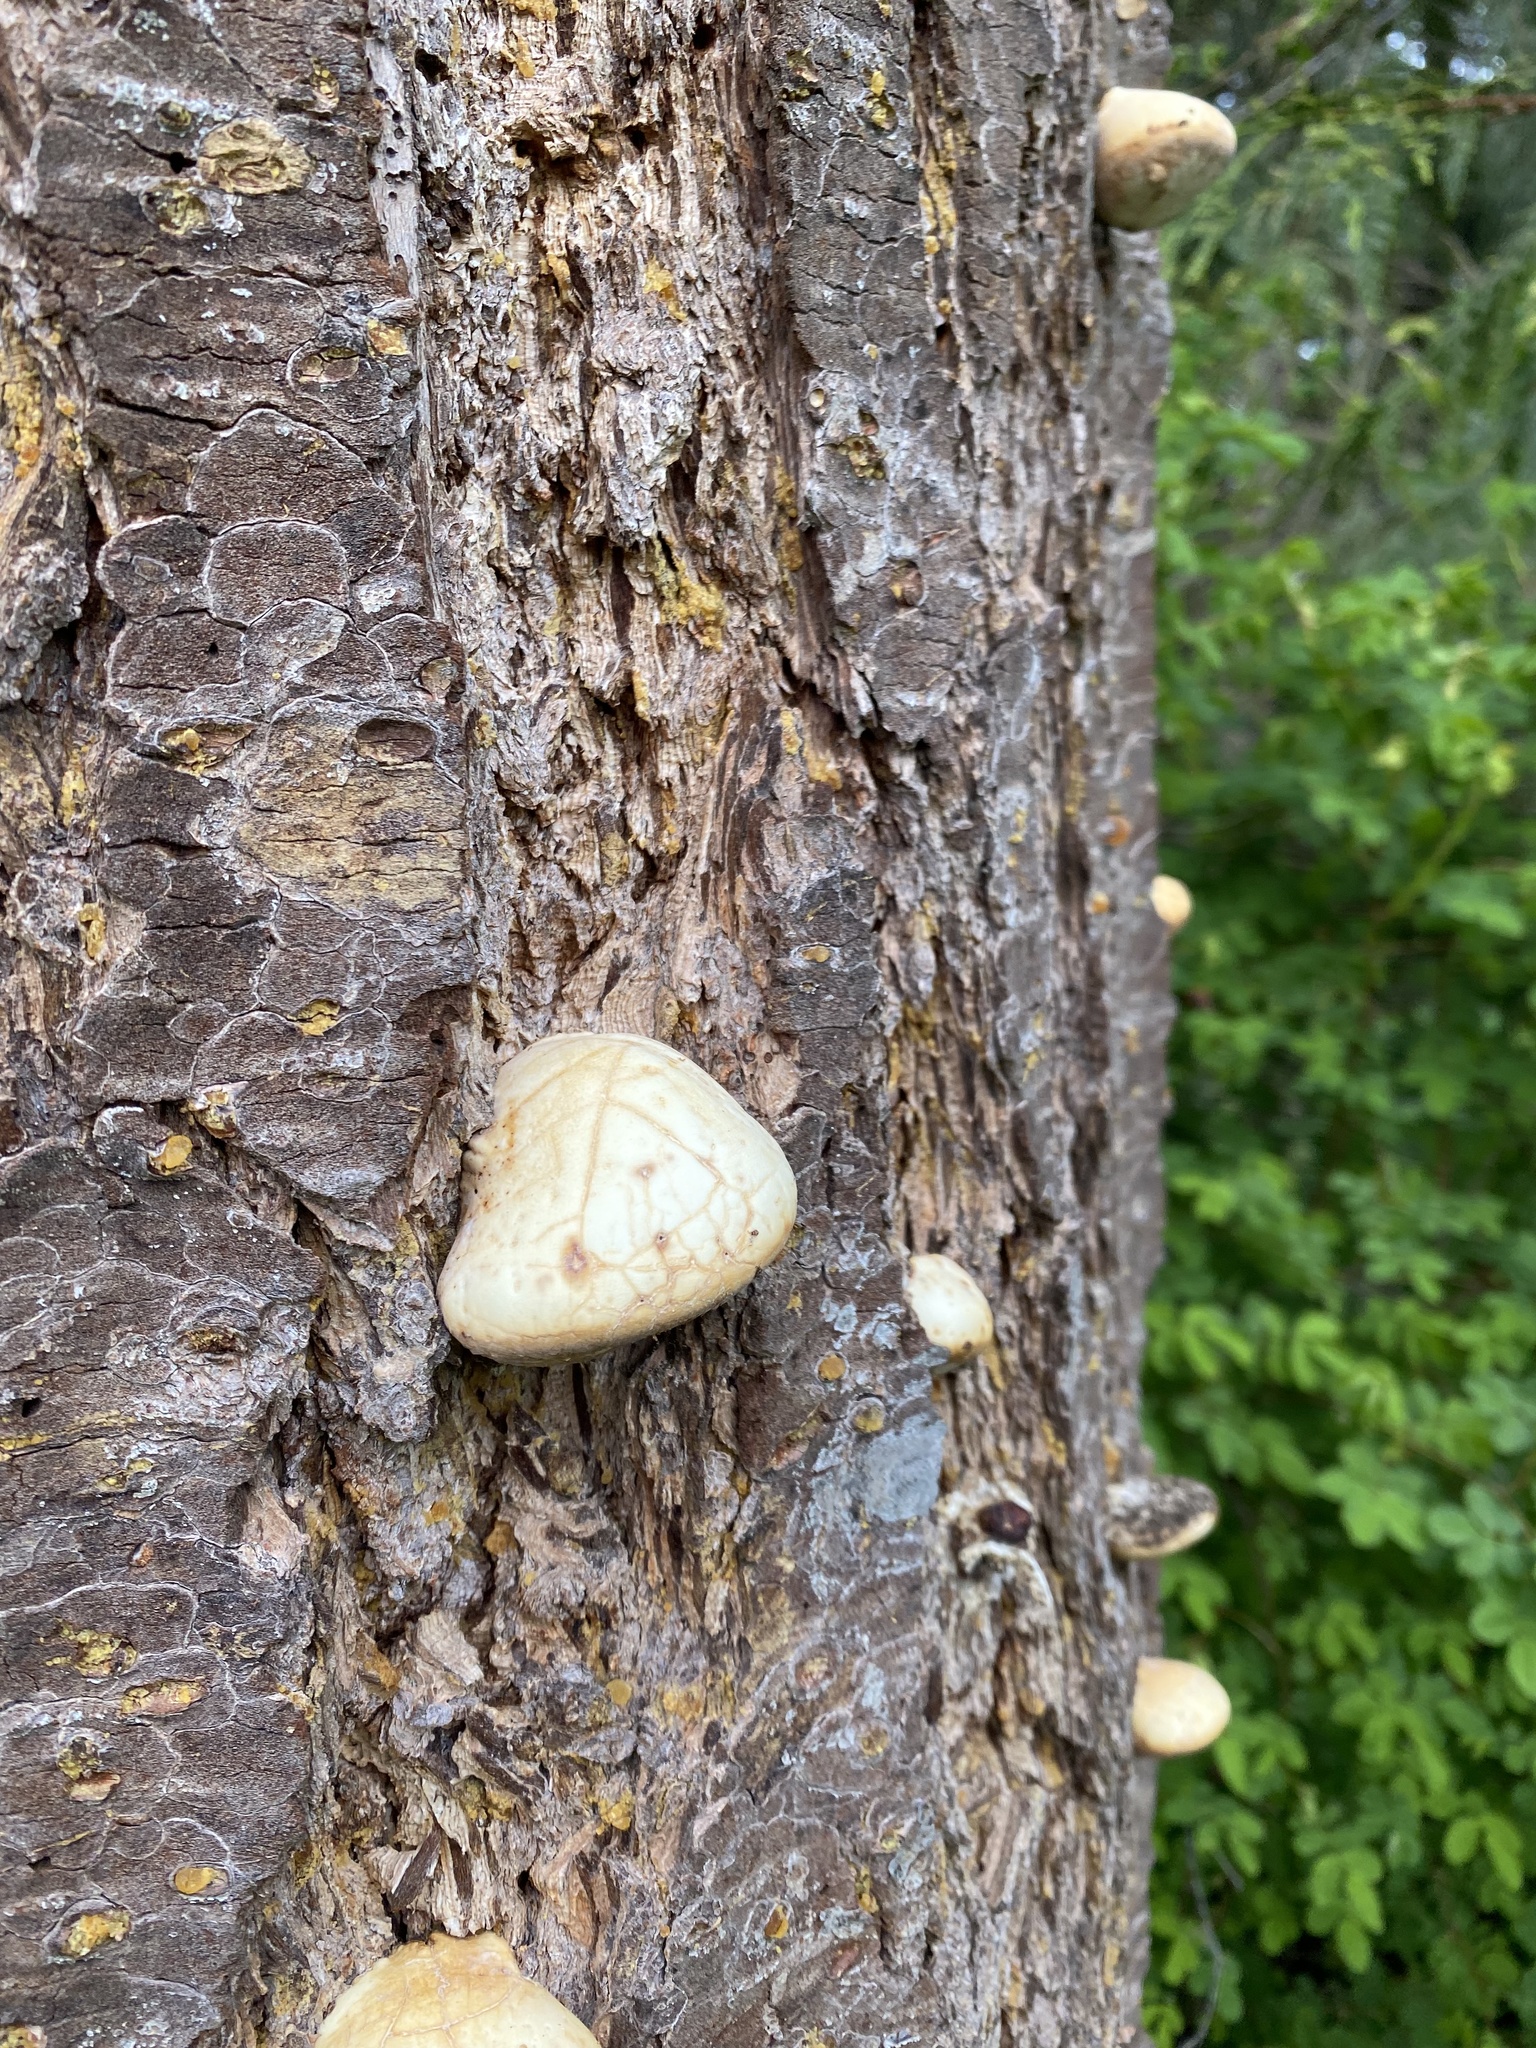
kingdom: Fungi
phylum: Basidiomycota
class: Agaricomycetes
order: Polyporales
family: Polyporaceae
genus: Cryptoporus
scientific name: Cryptoporus volvatus
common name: Veiled polypore
